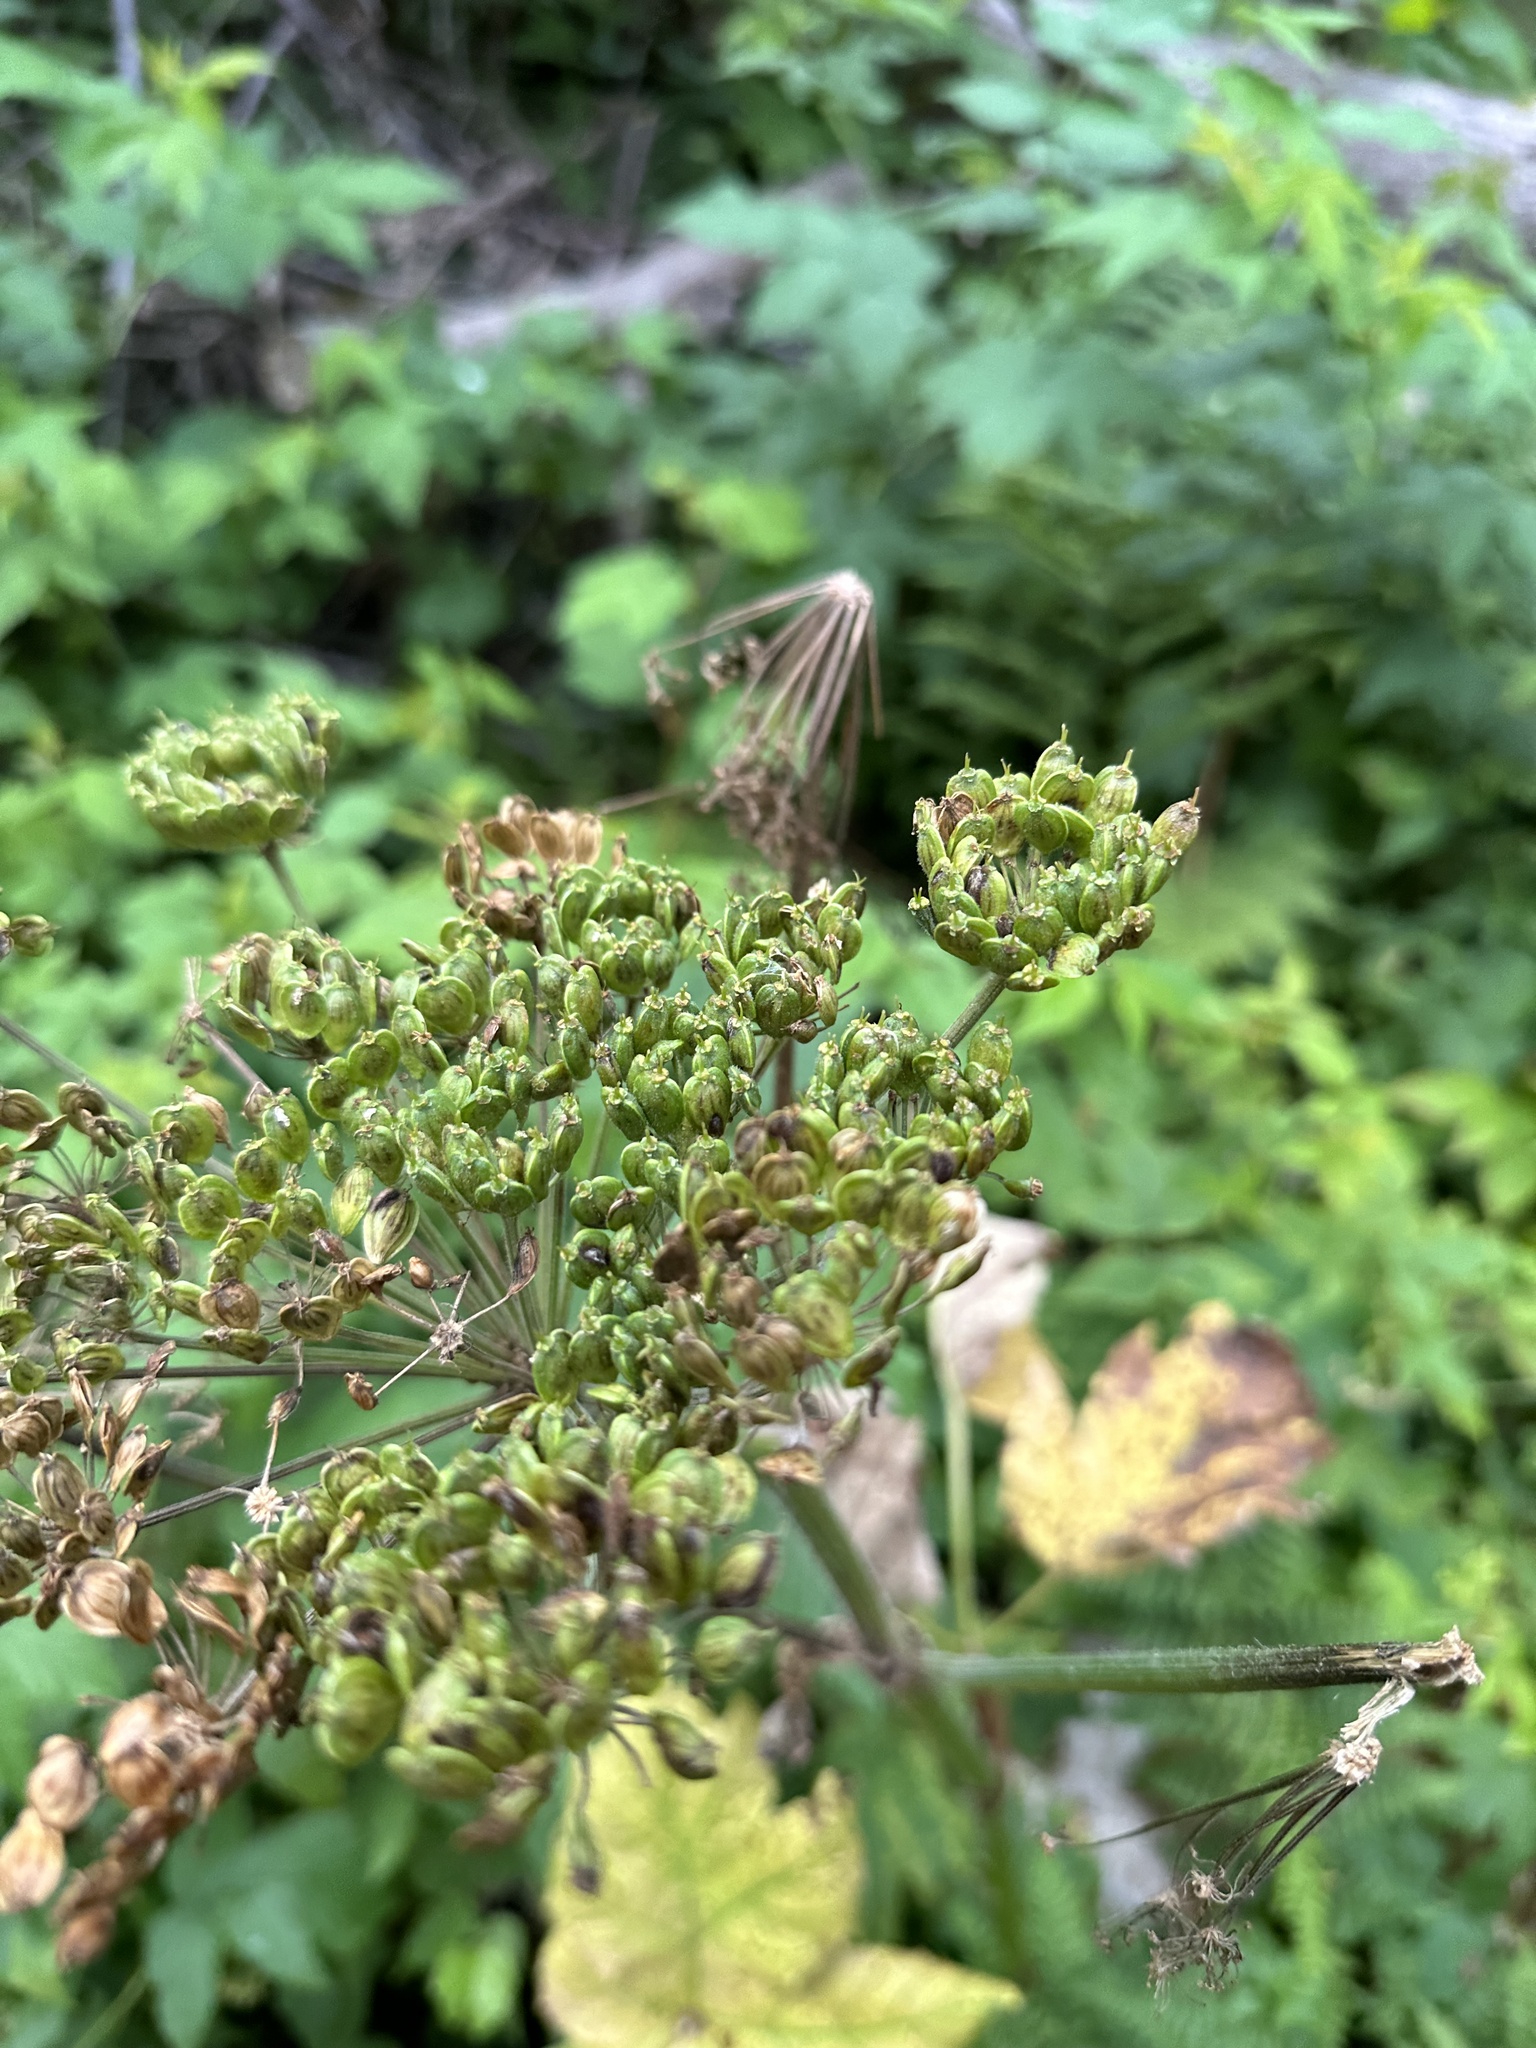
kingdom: Plantae
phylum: Tracheophyta
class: Magnoliopsida
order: Asterales
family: Asteraceae
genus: Lactuca
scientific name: Lactuca biennis
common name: Blue wood lettuce
